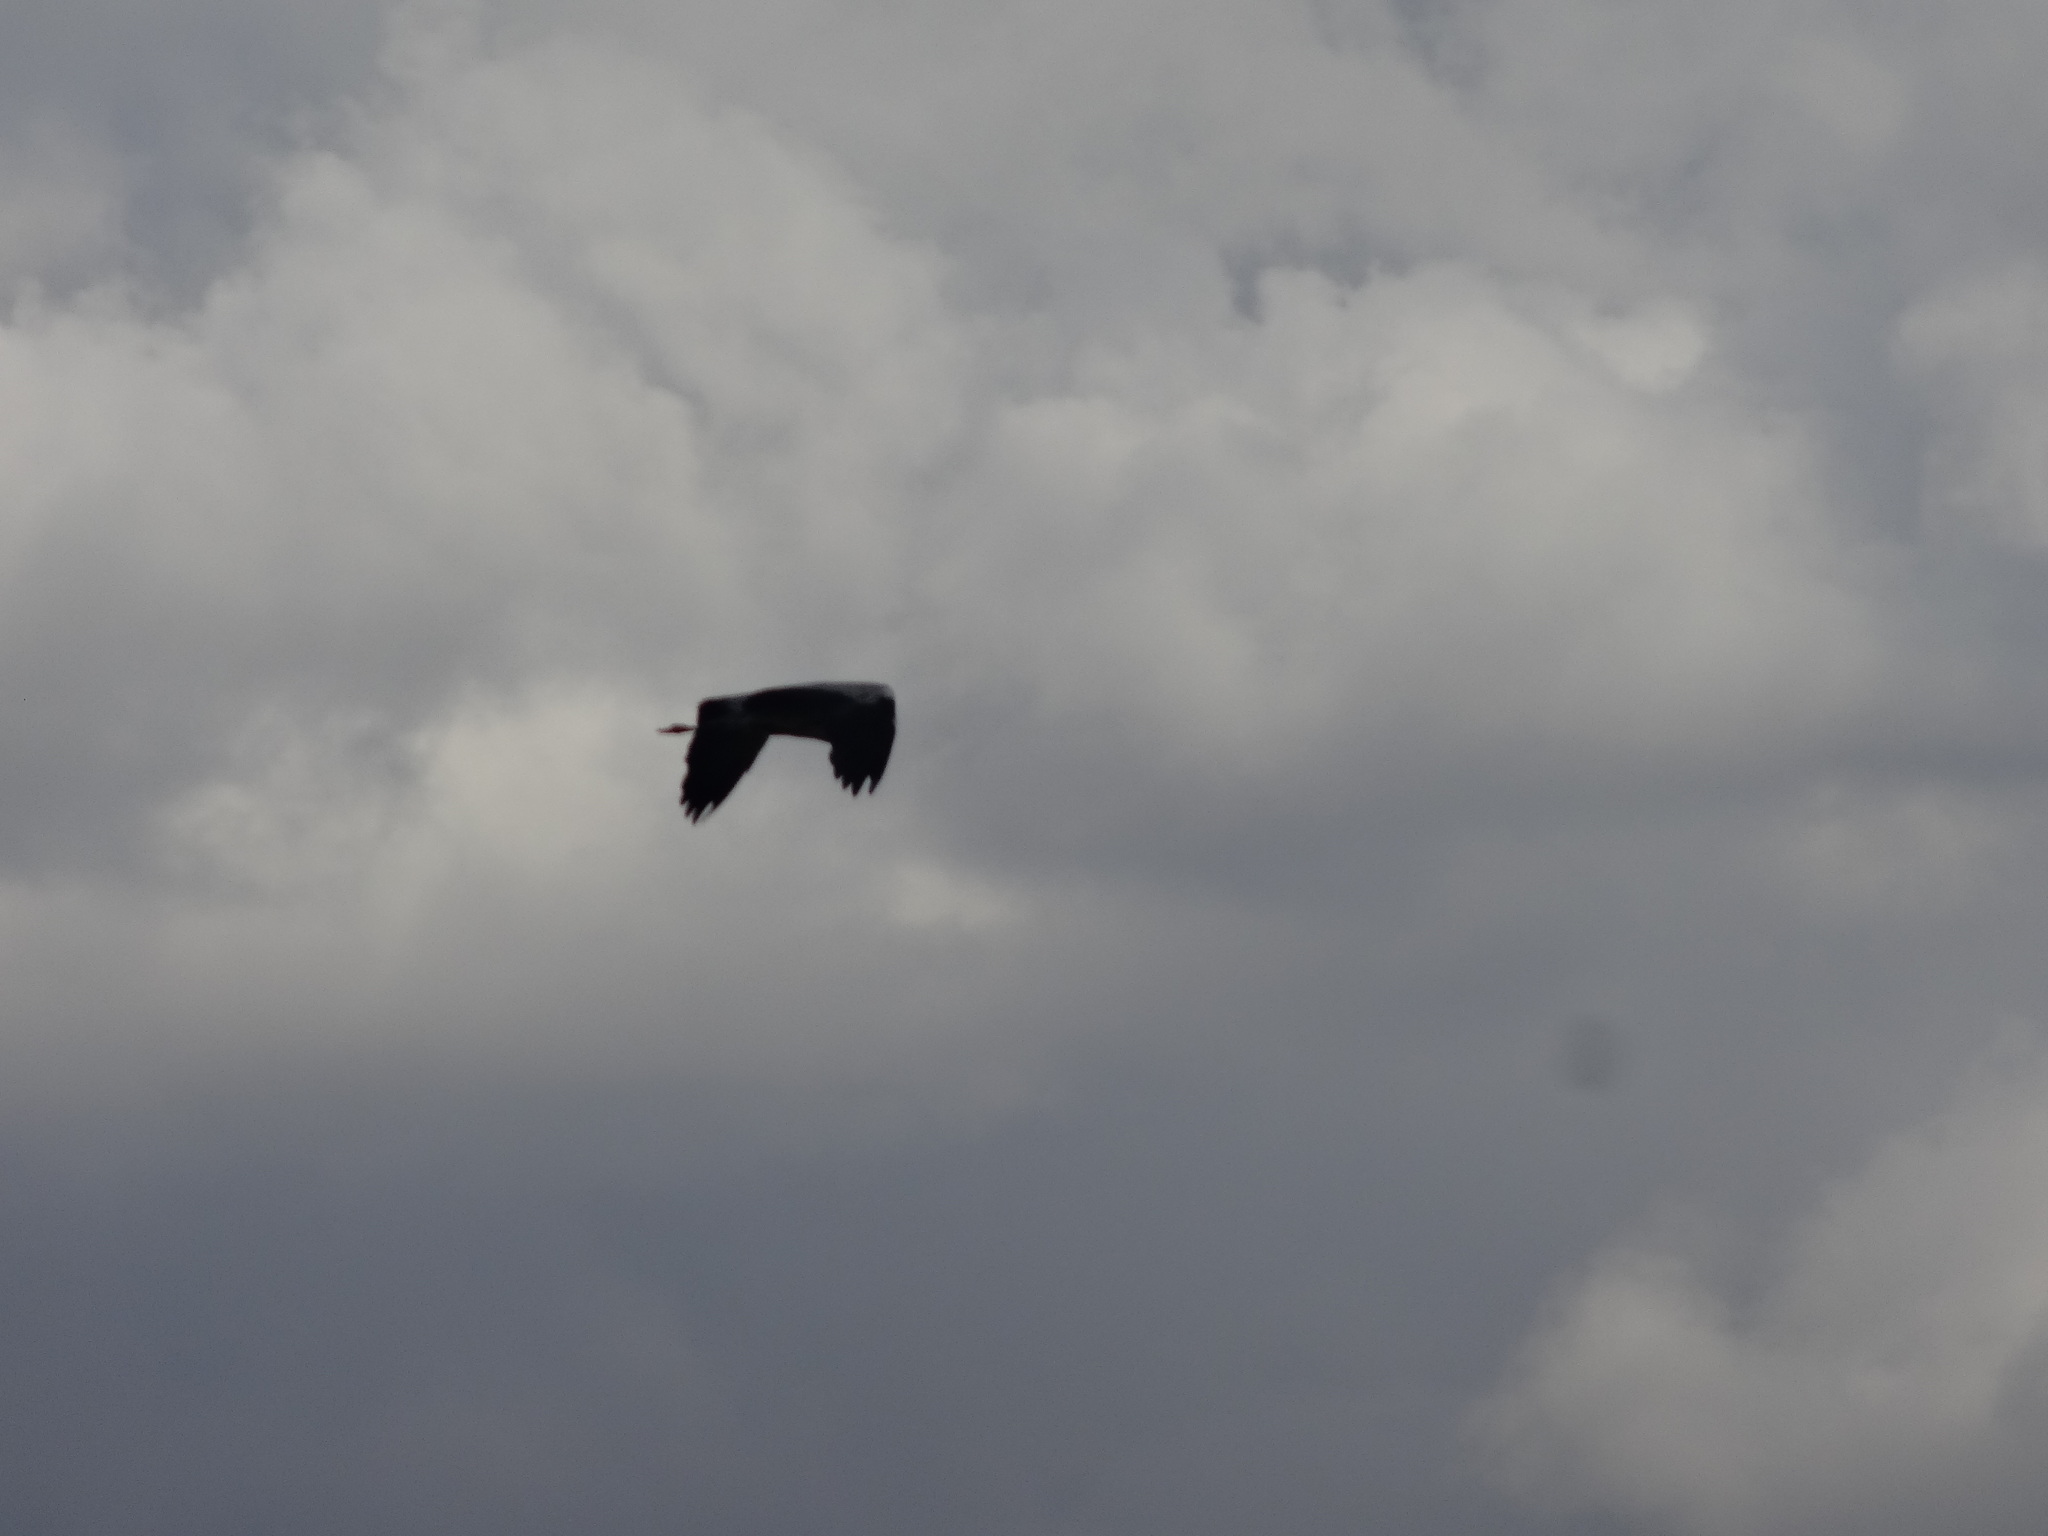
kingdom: Animalia
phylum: Chordata
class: Aves
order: Pelecaniformes
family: Ardeidae
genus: Ardea
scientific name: Ardea cinerea
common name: Grey heron
